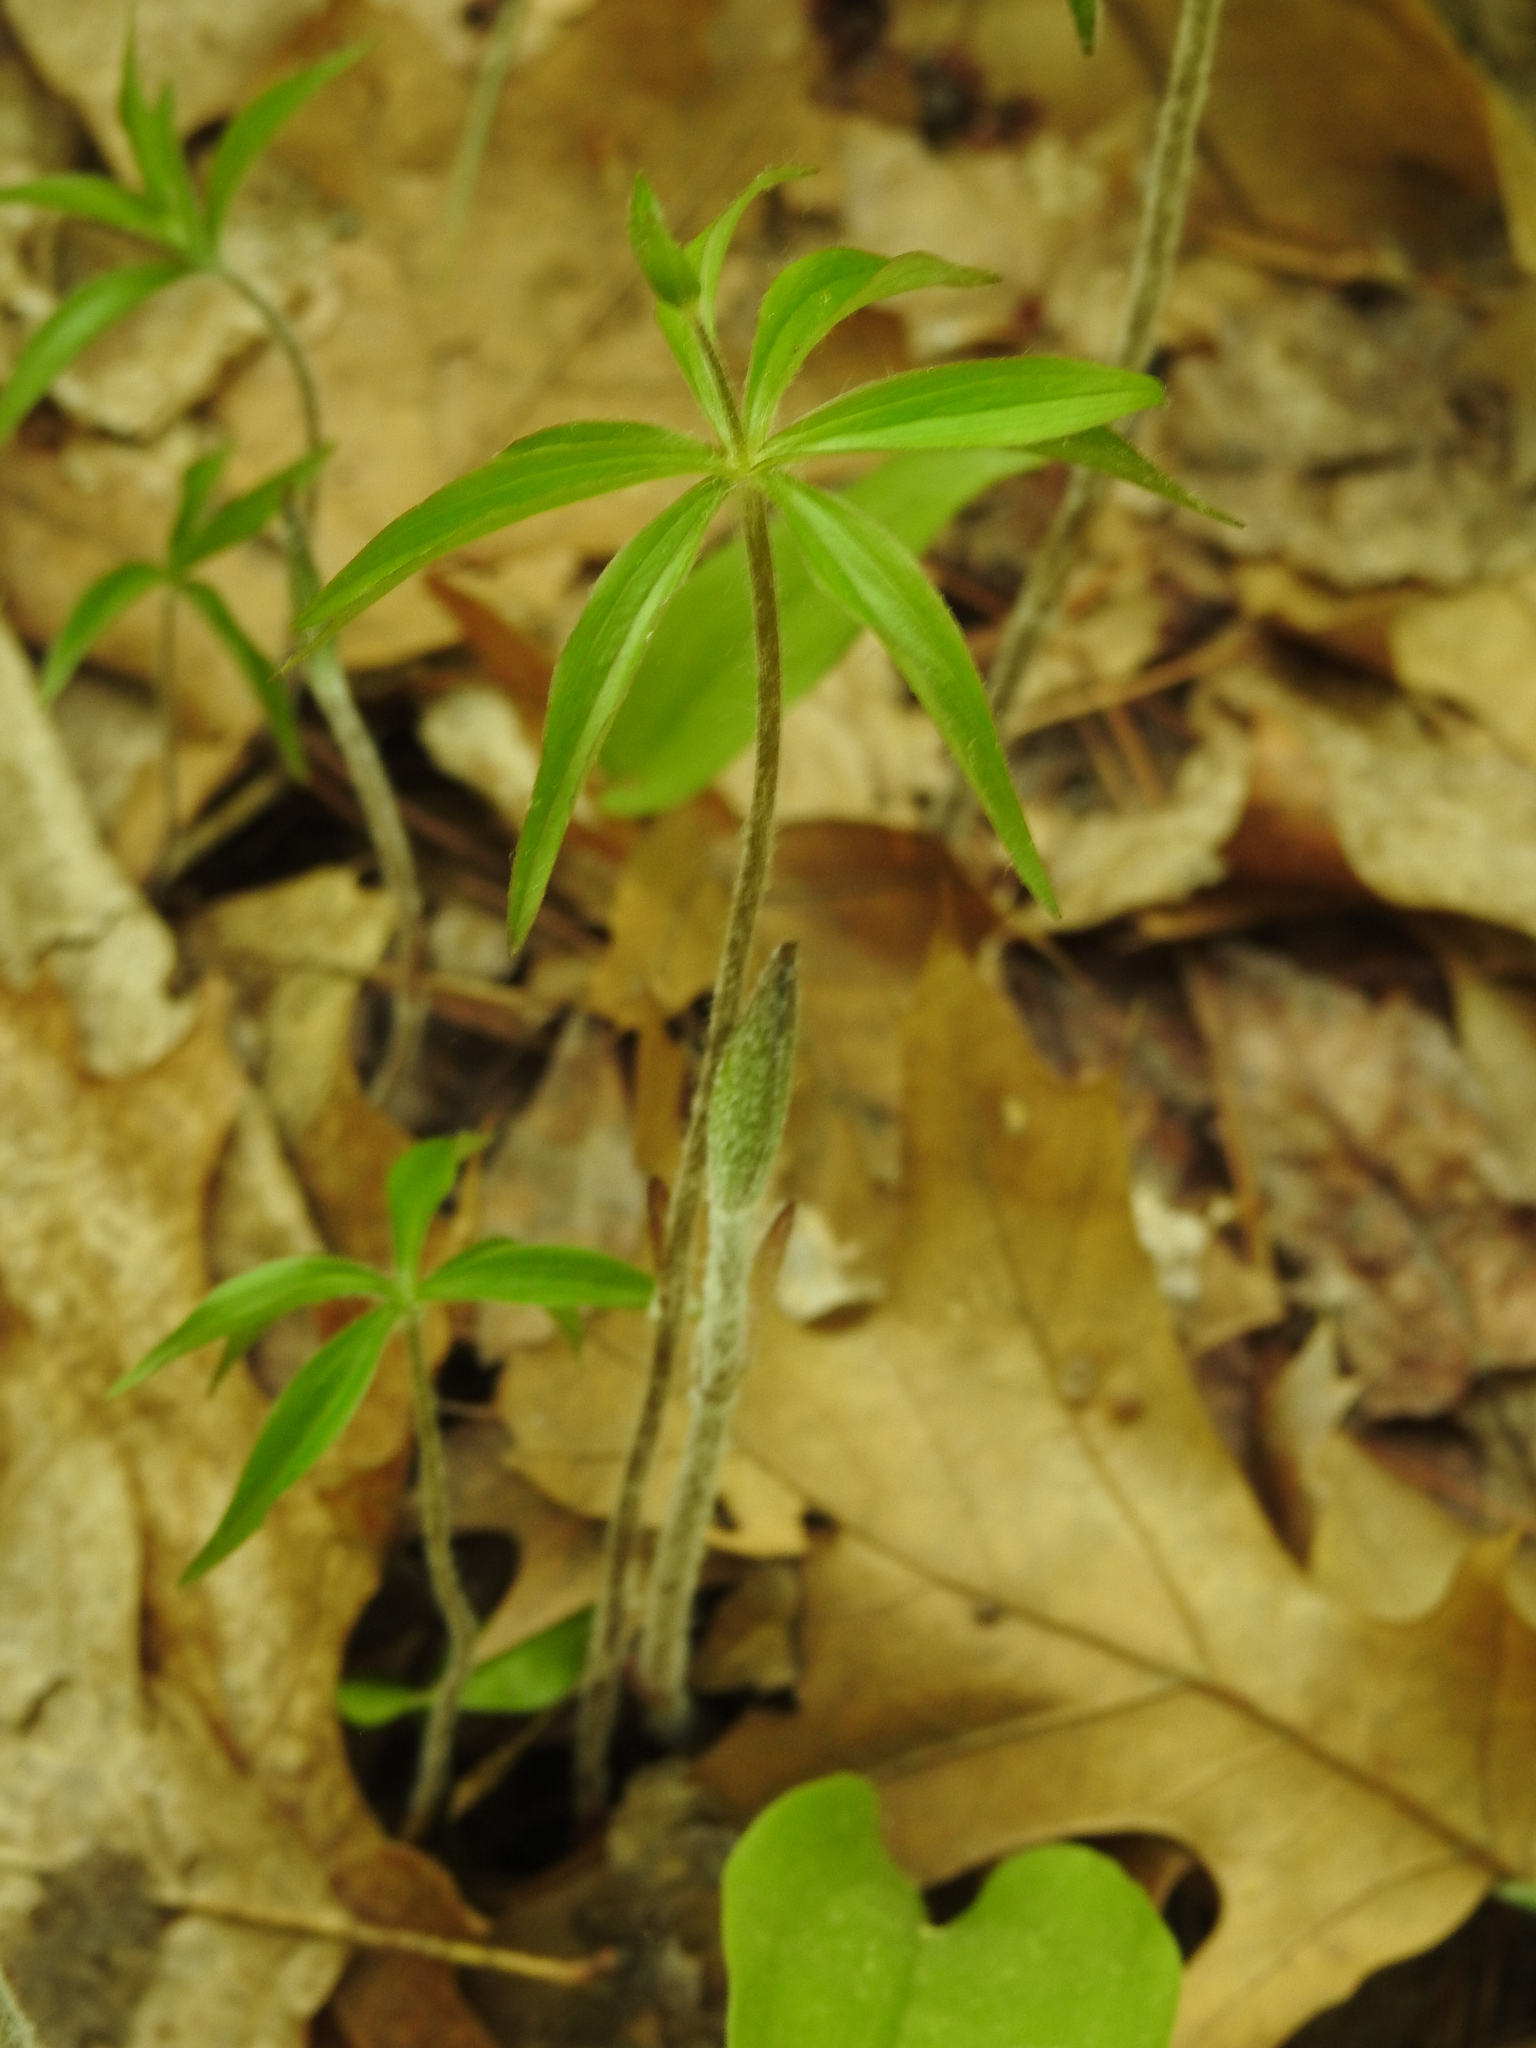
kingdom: Plantae
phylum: Tracheophyta
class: Liliopsida
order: Liliales
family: Liliaceae
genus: Medeola
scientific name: Medeola virginiana
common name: Indian cucumber-root
